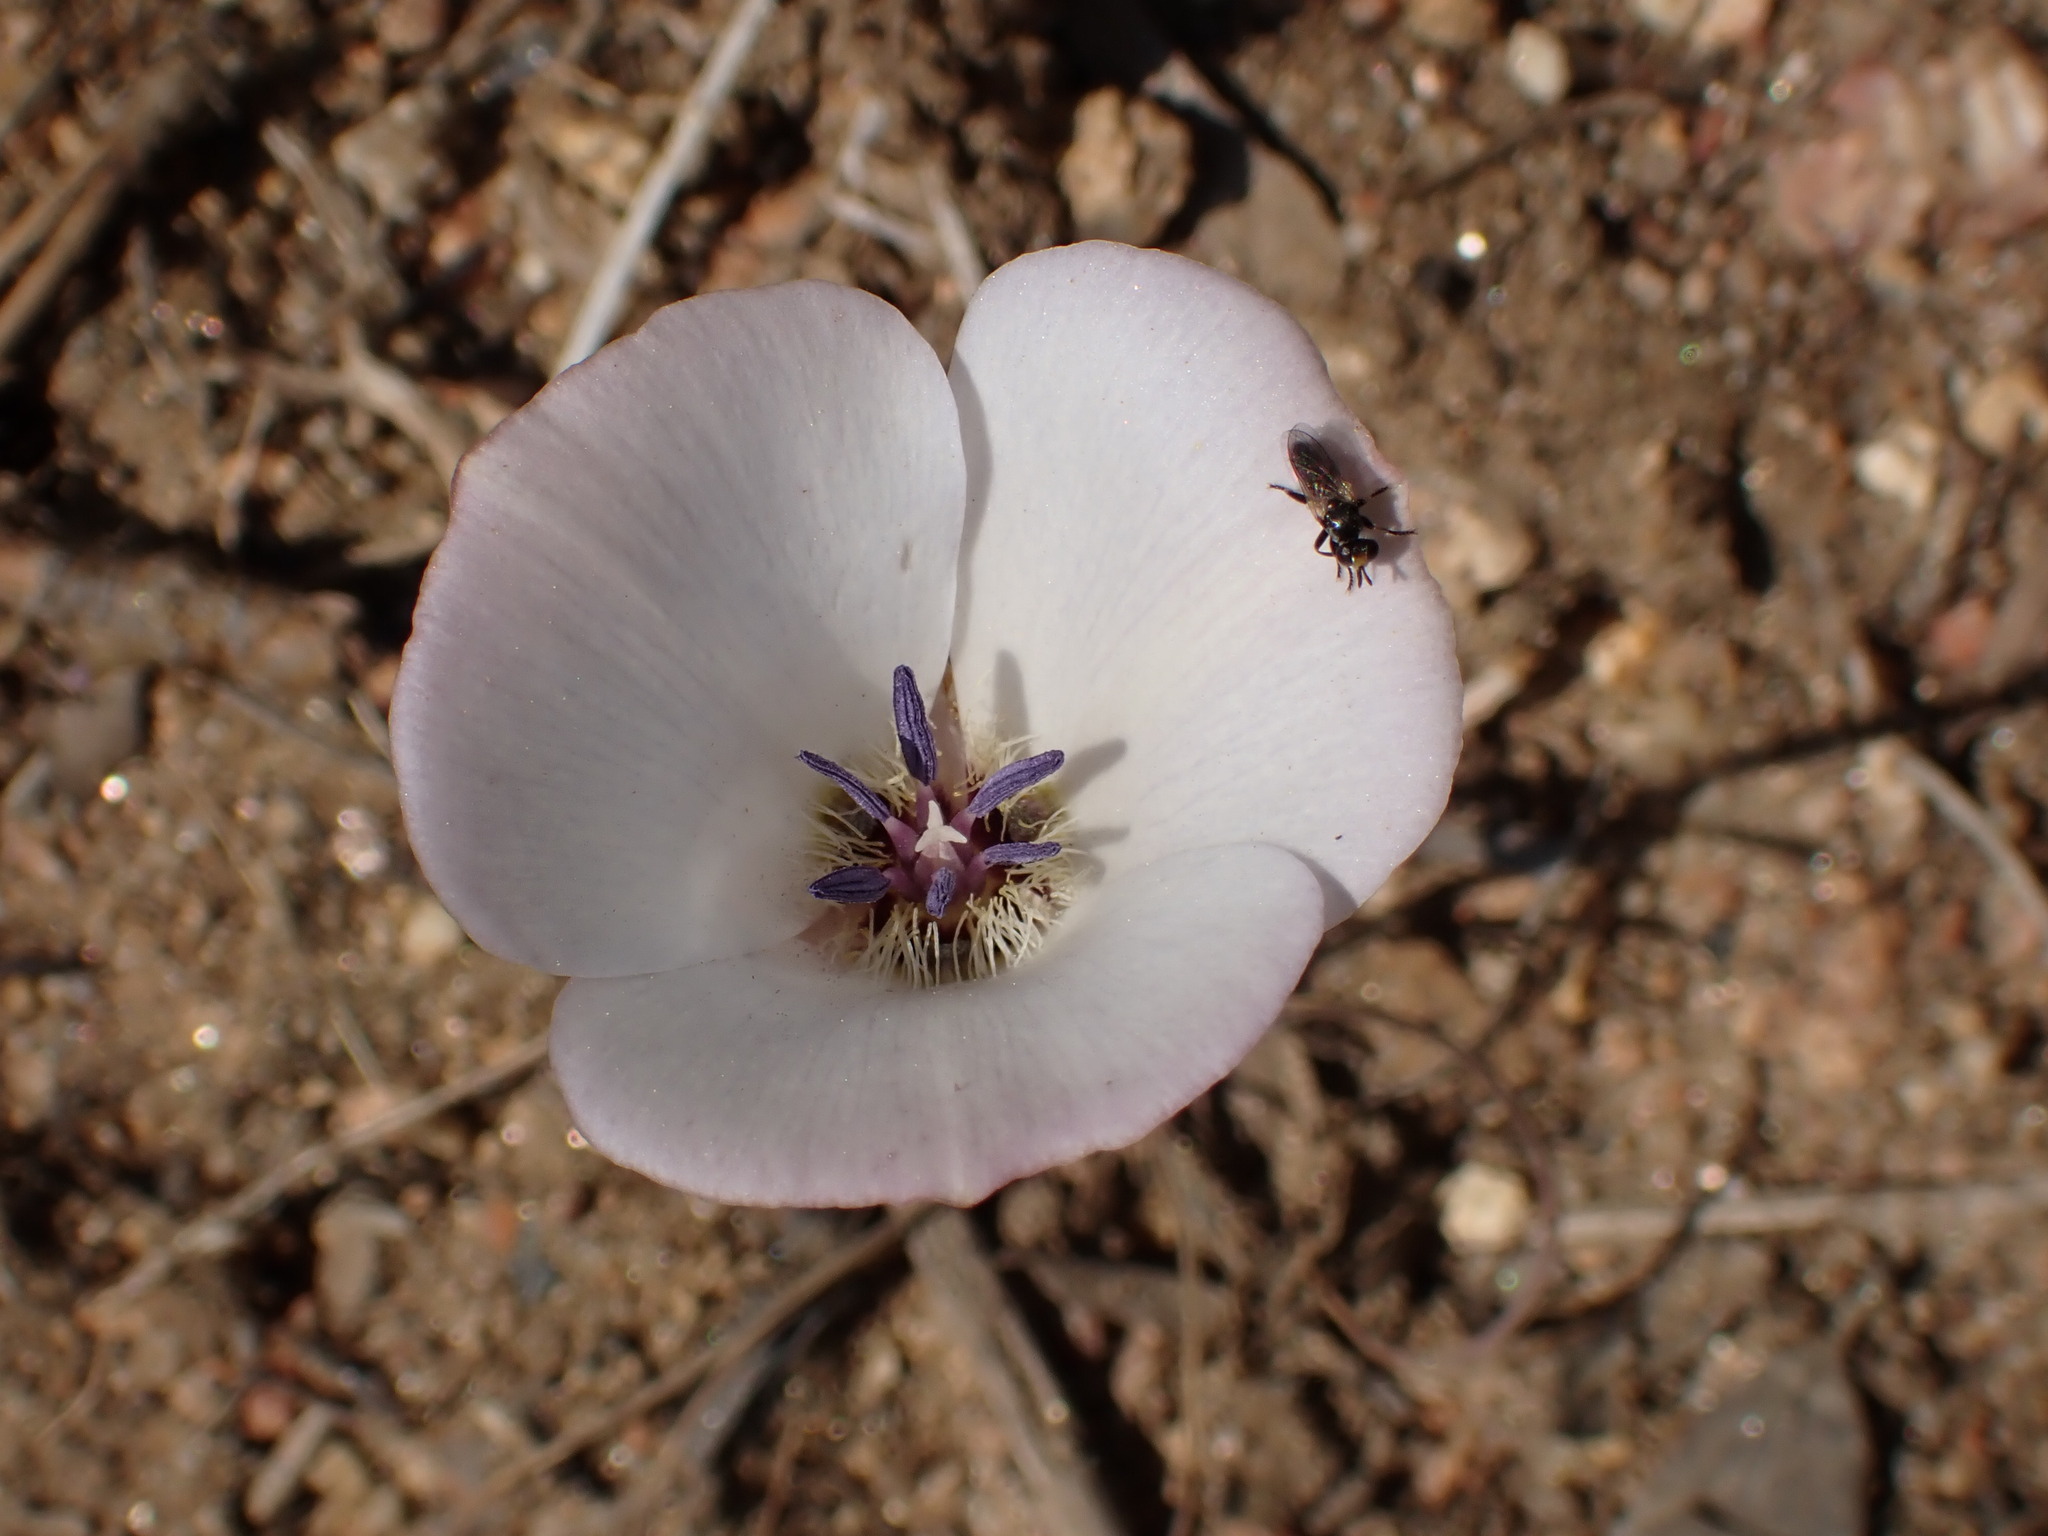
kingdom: Plantae
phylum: Tracheophyta
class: Liliopsida
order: Liliales
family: Liliaceae
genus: Calochortus
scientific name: Calochortus invenustus
